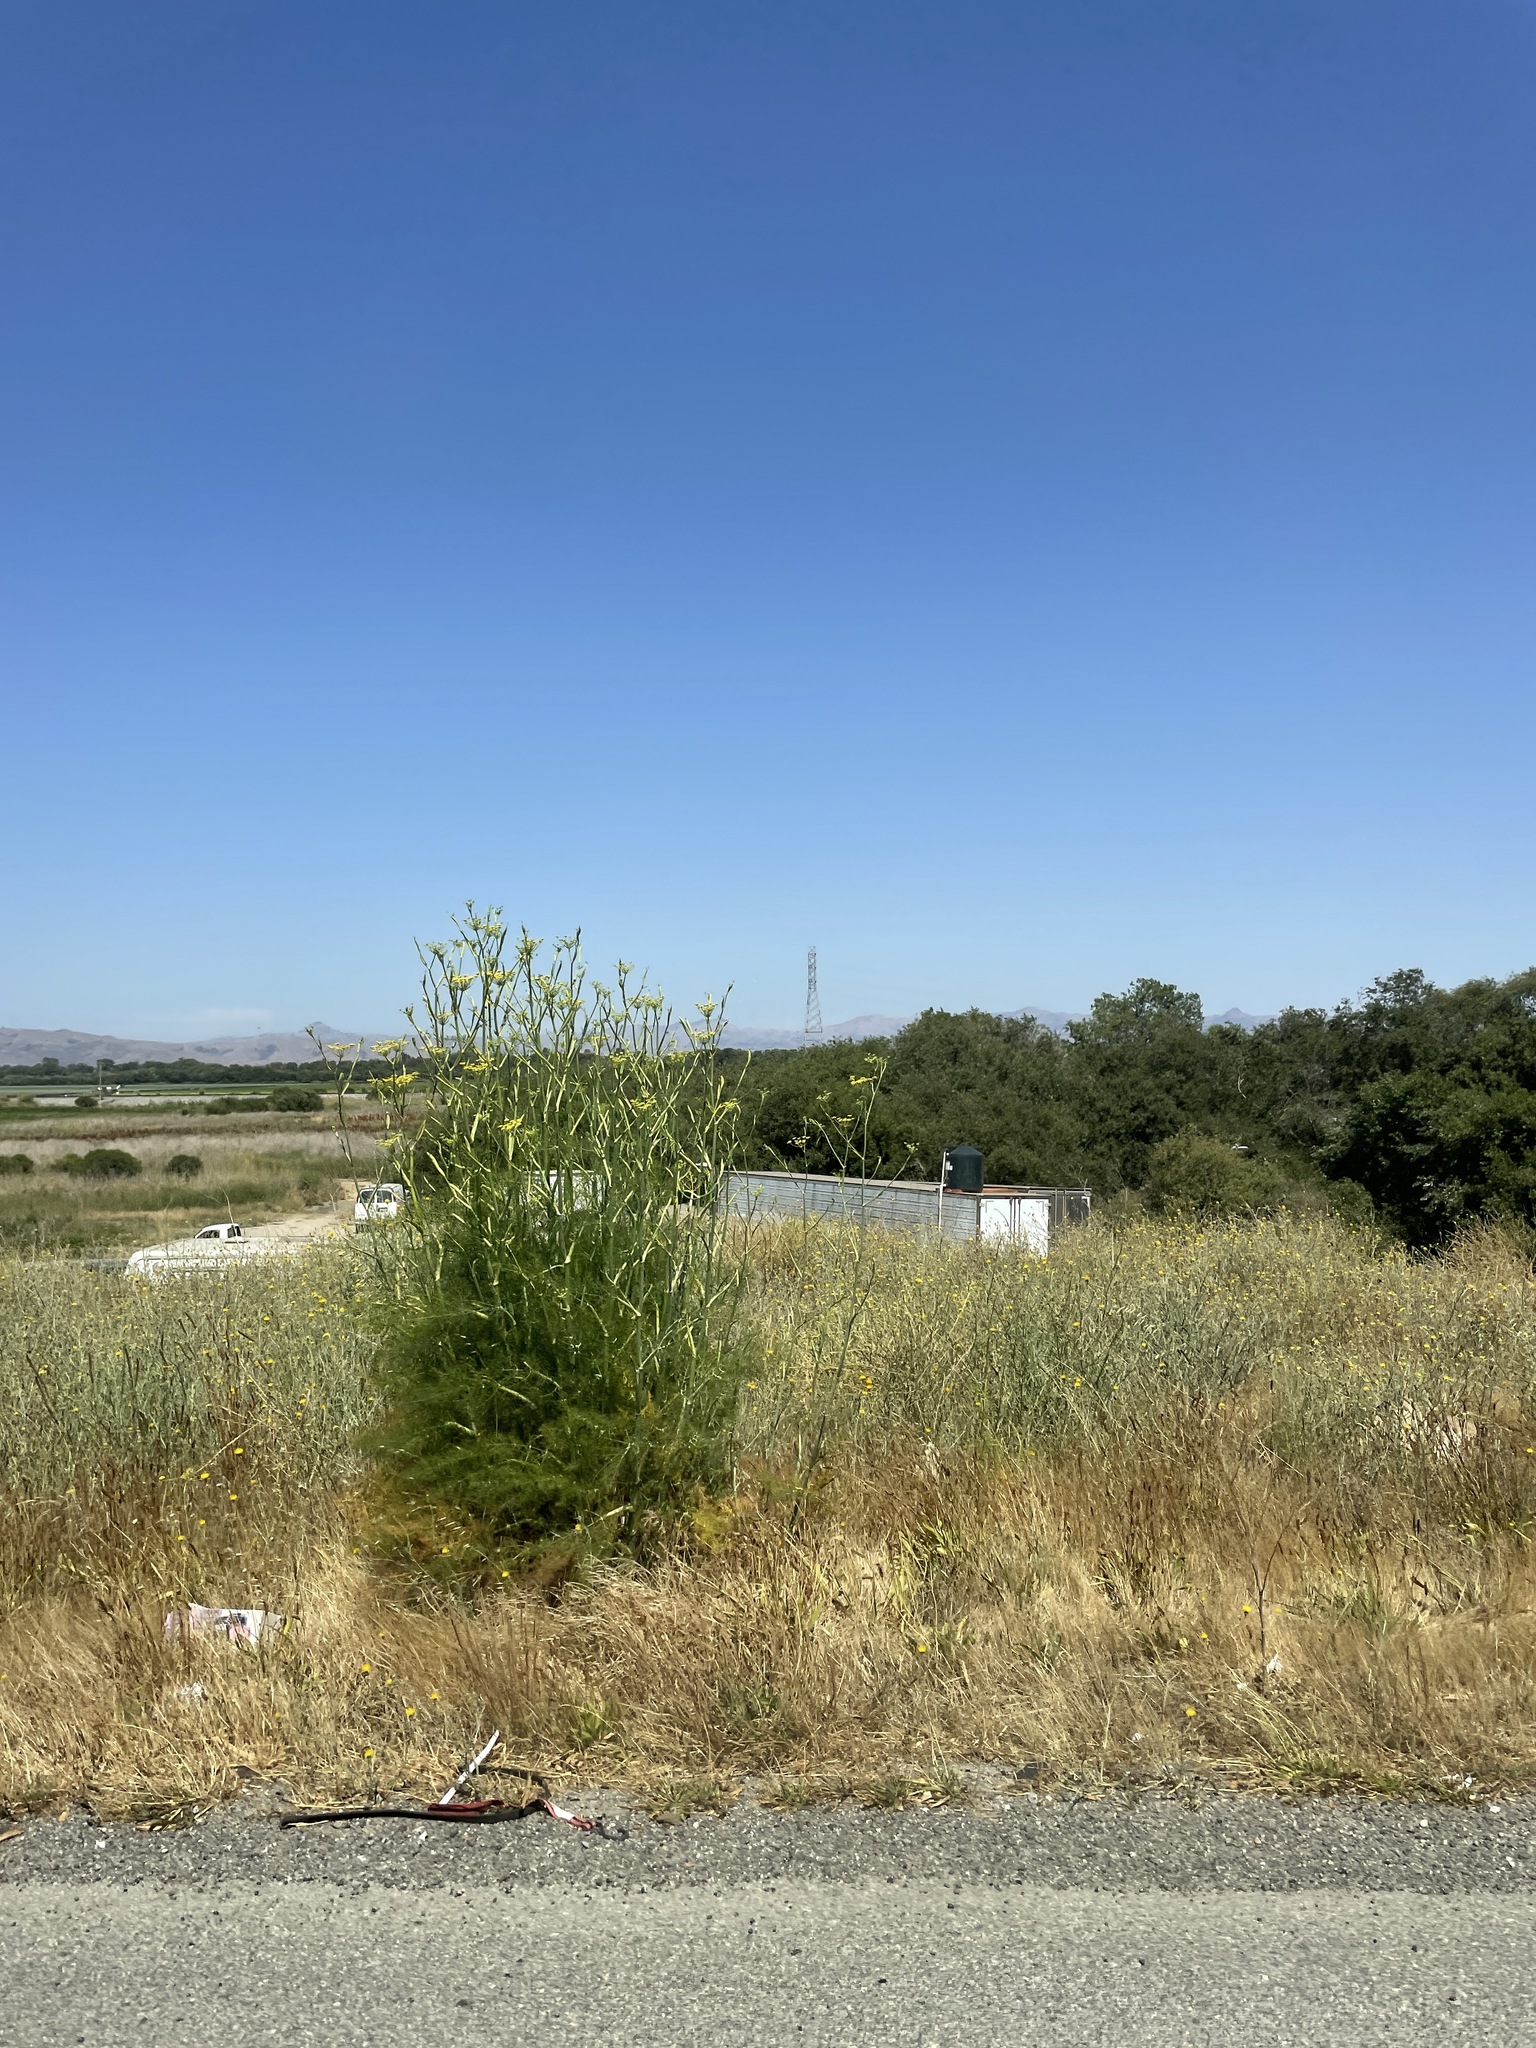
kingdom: Plantae
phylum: Tracheophyta
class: Magnoliopsida
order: Apiales
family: Apiaceae
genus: Foeniculum
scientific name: Foeniculum vulgare
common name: Fennel
